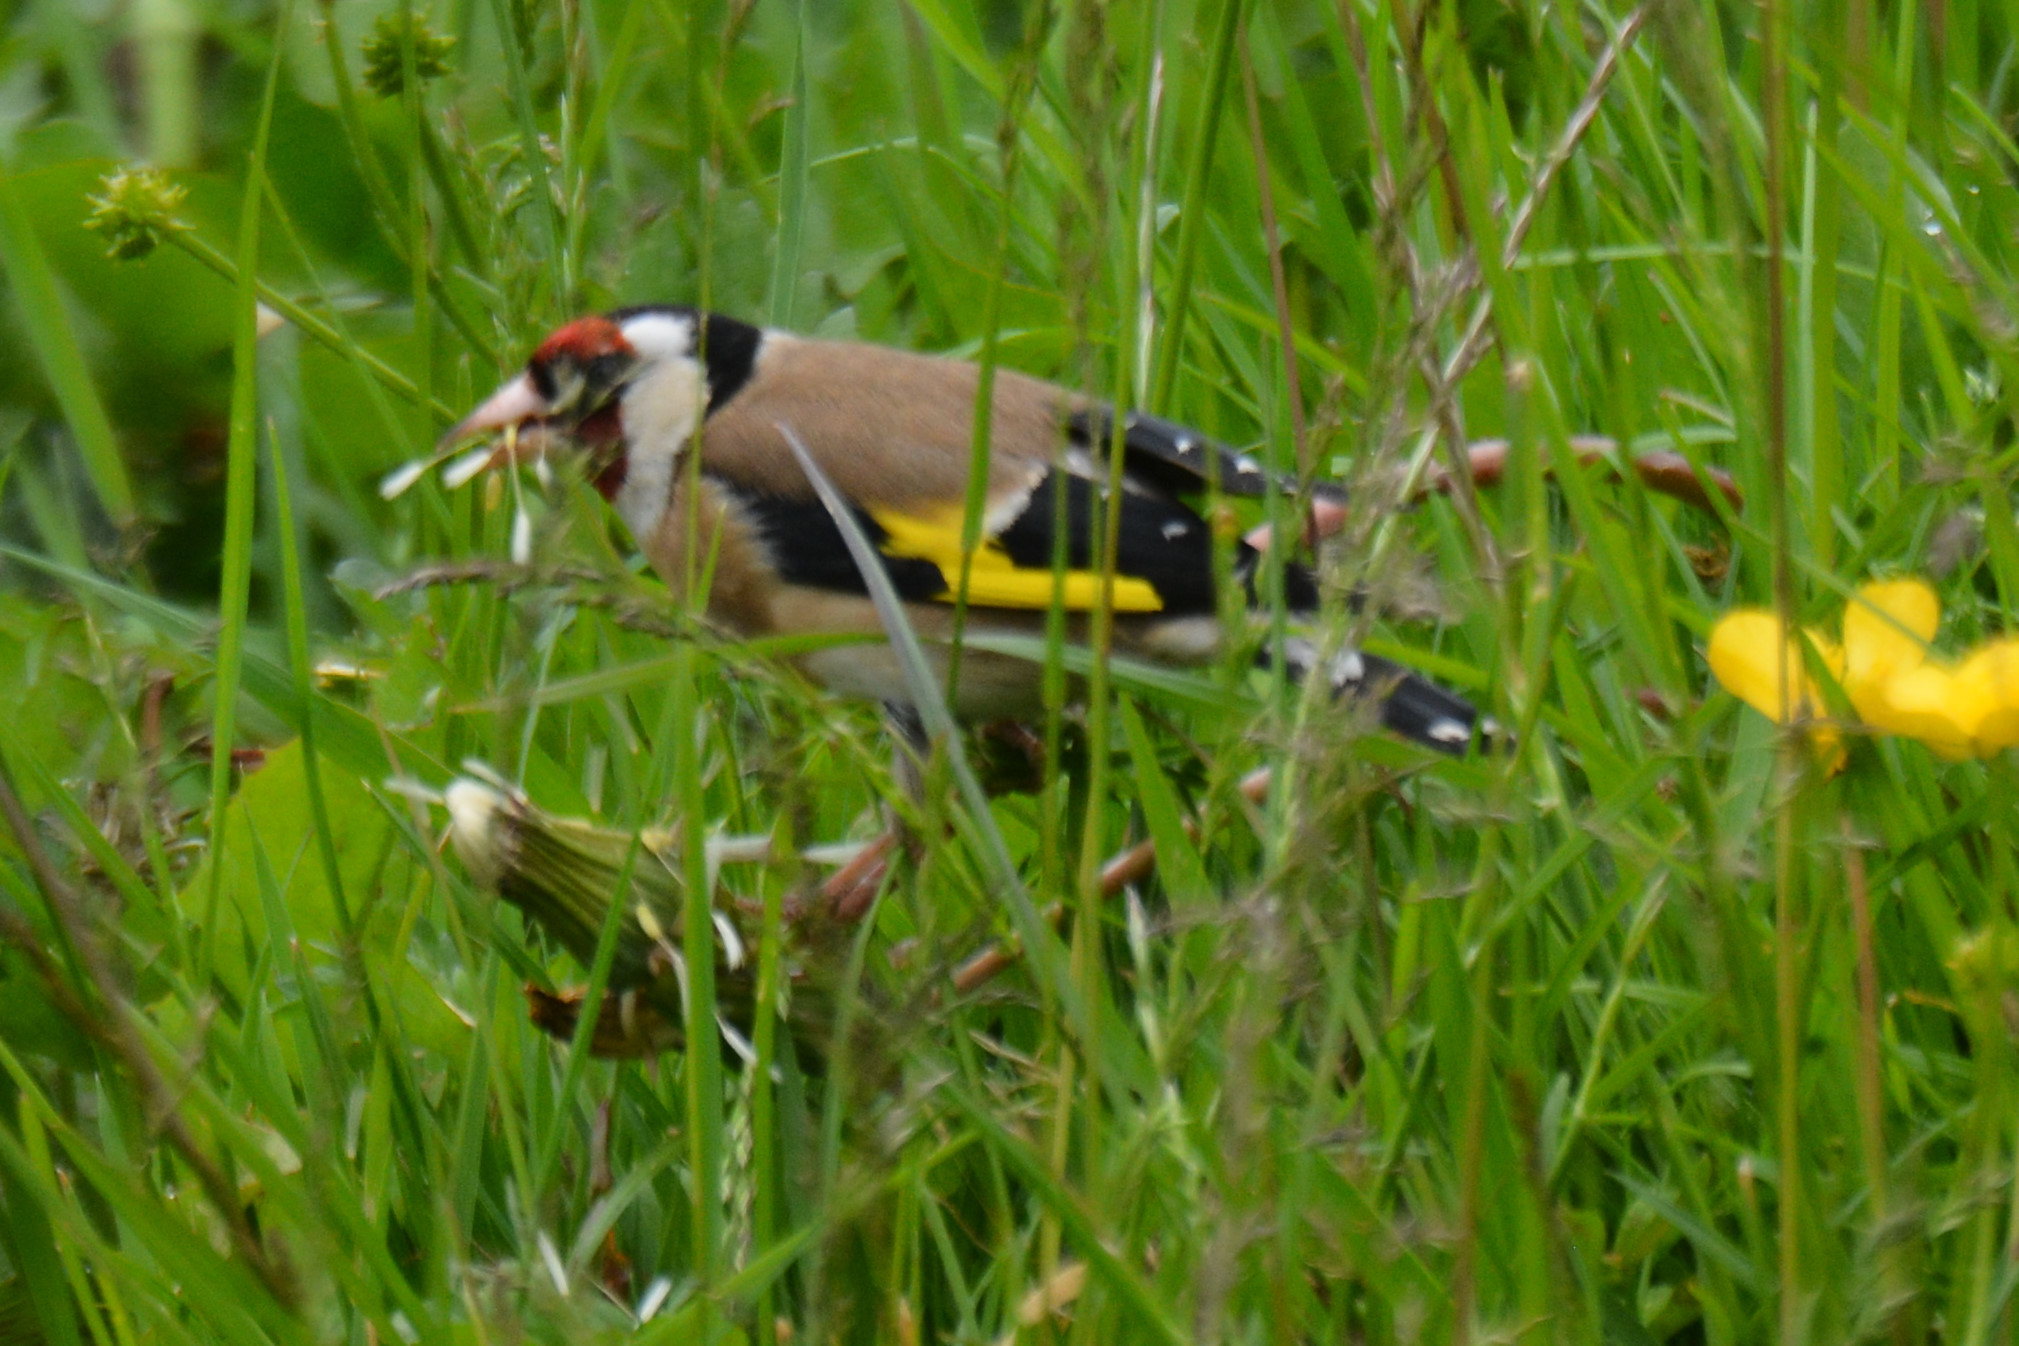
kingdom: Animalia
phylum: Chordata
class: Aves
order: Passeriformes
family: Fringillidae
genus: Carduelis
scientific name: Carduelis carduelis
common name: European goldfinch
